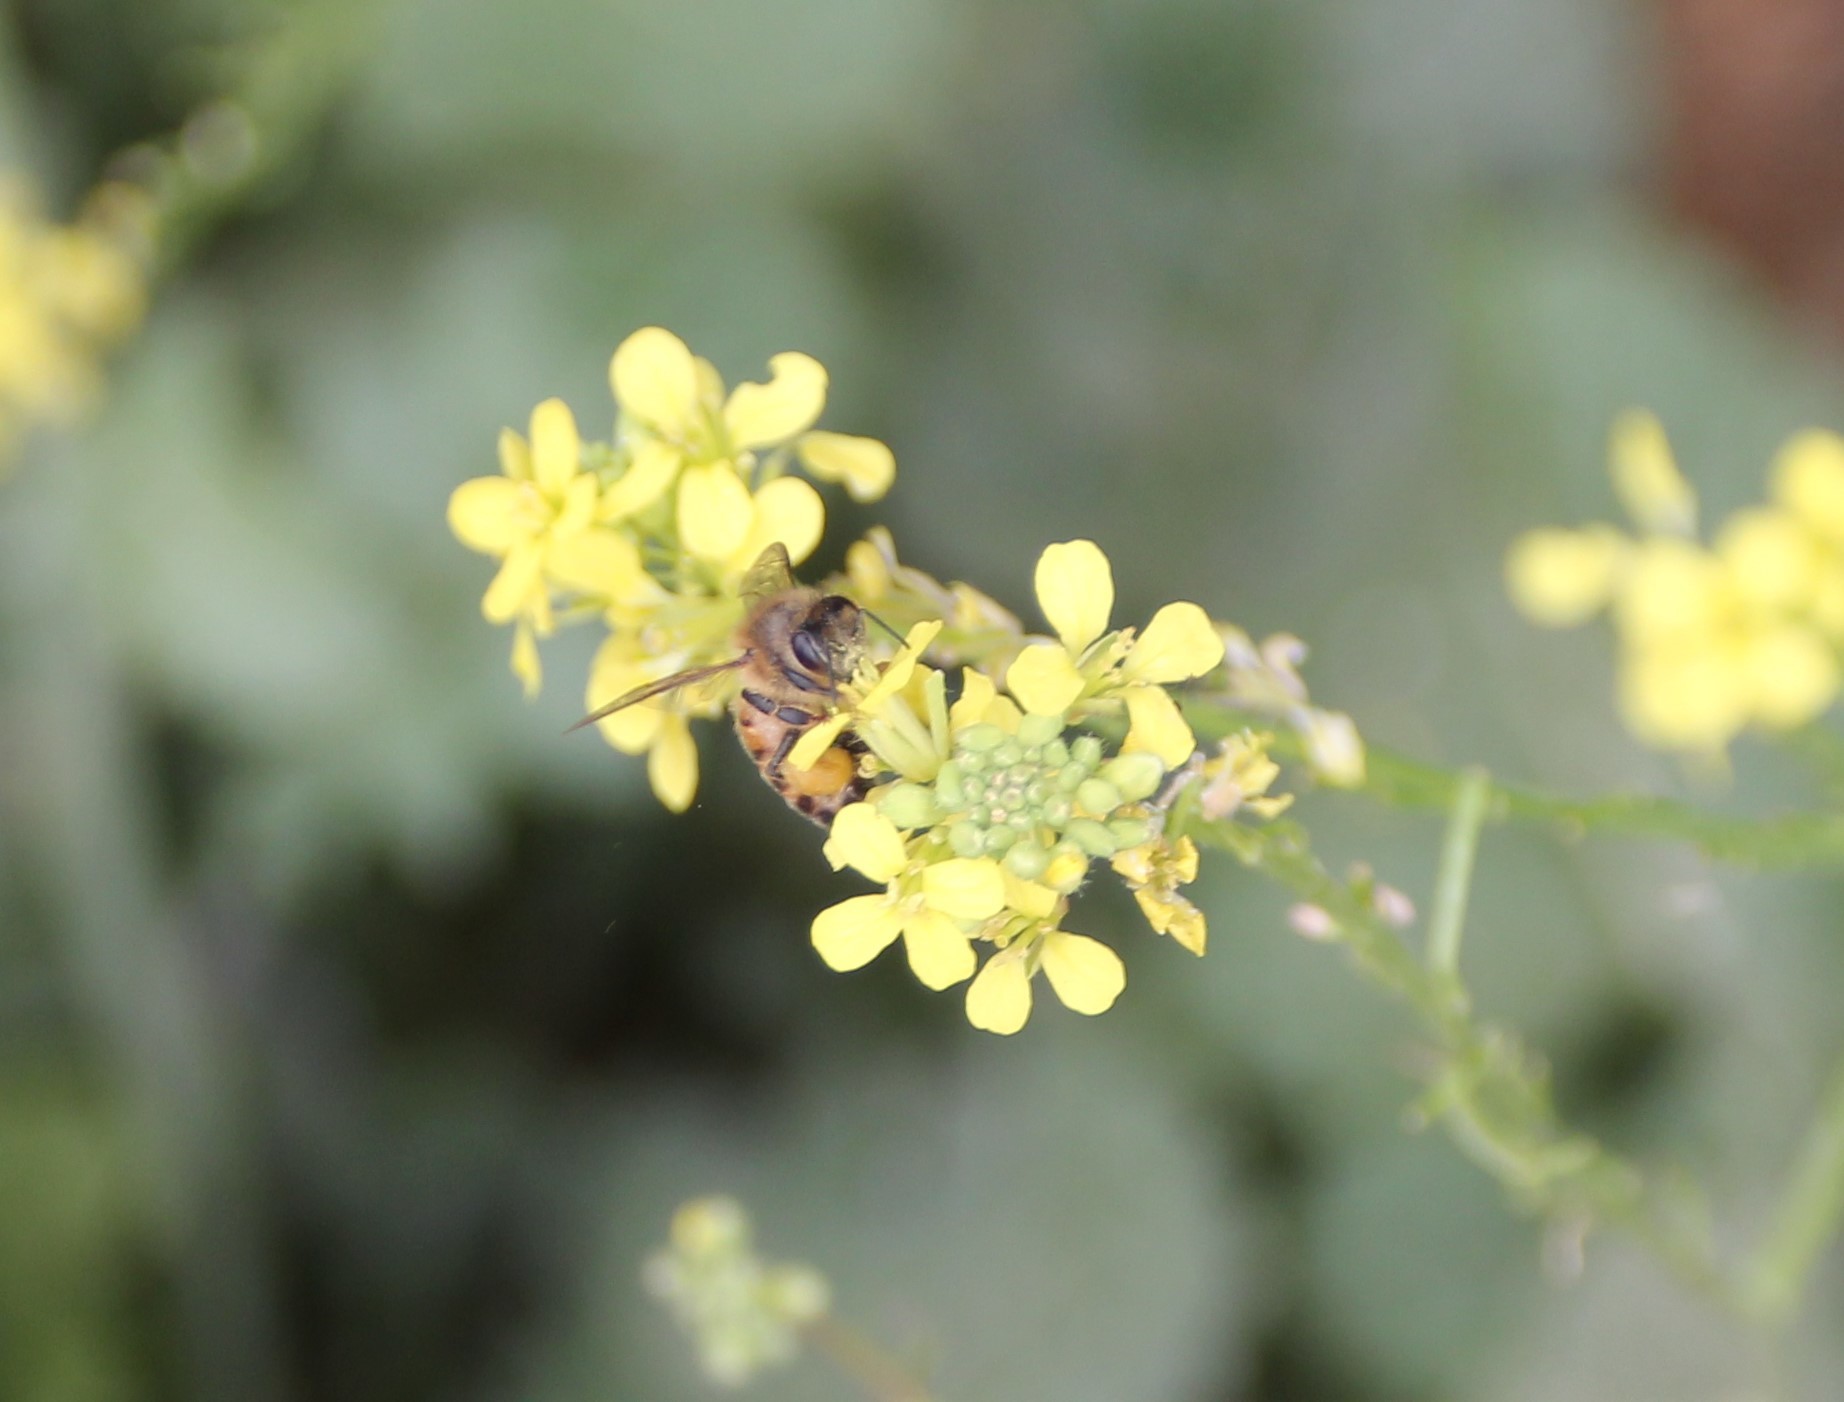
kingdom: Plantae
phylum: Tracheophyta
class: Magnoliopsida
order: Brassicales
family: Brassicaceae
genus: Hirschfeldia
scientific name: Hirschfeldia incana
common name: Hoary mustard
